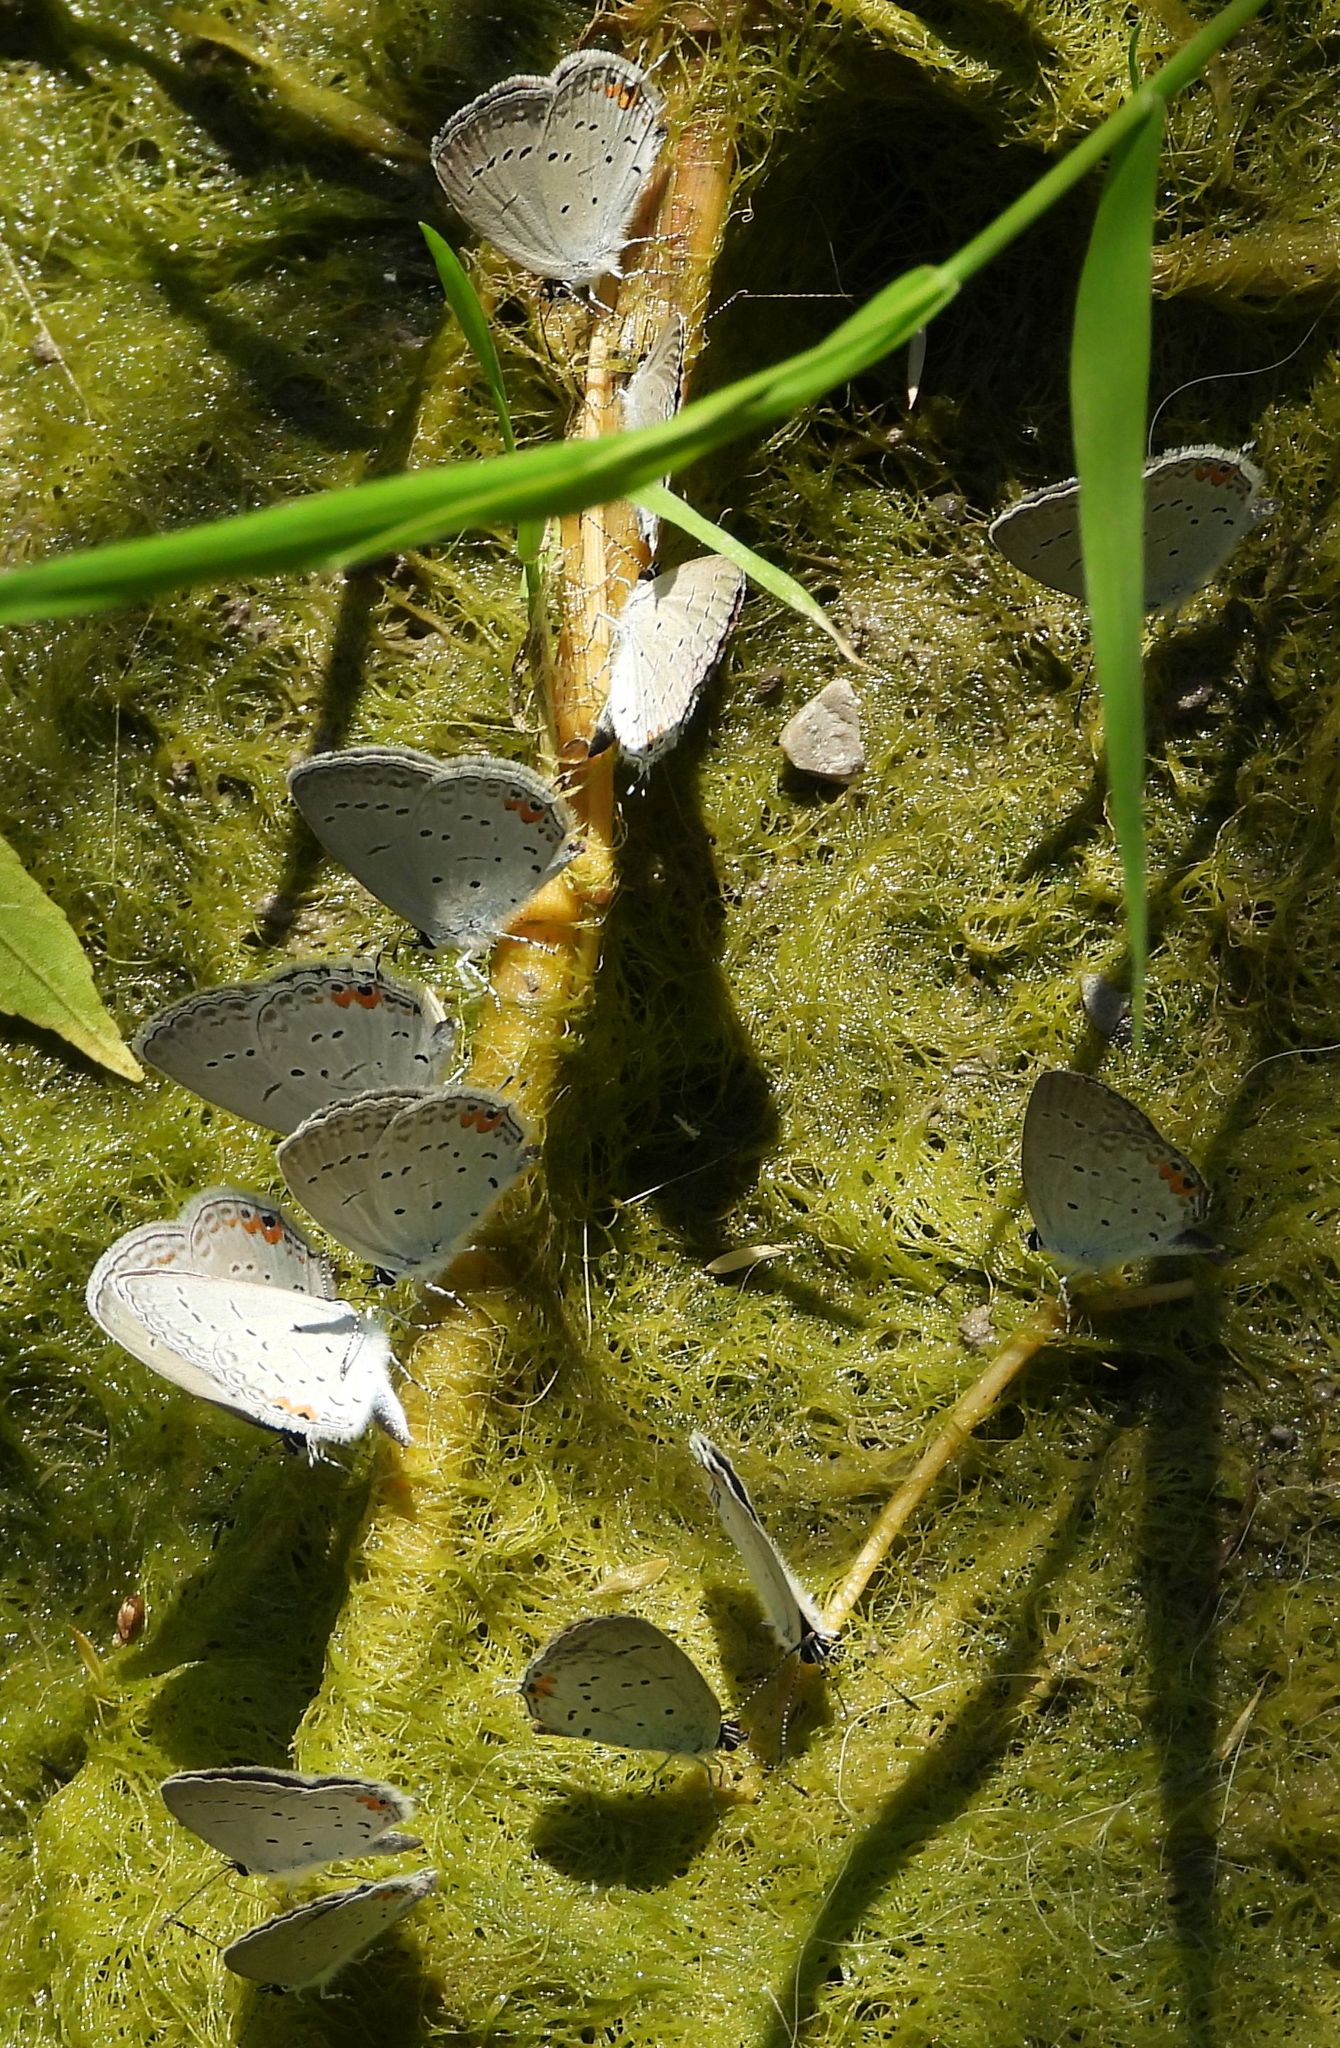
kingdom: Animalia
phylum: Arthropoda
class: Insecta
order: Lepidoptera
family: Lycaenidae
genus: Elkalyce
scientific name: Elkalyce comyntas
